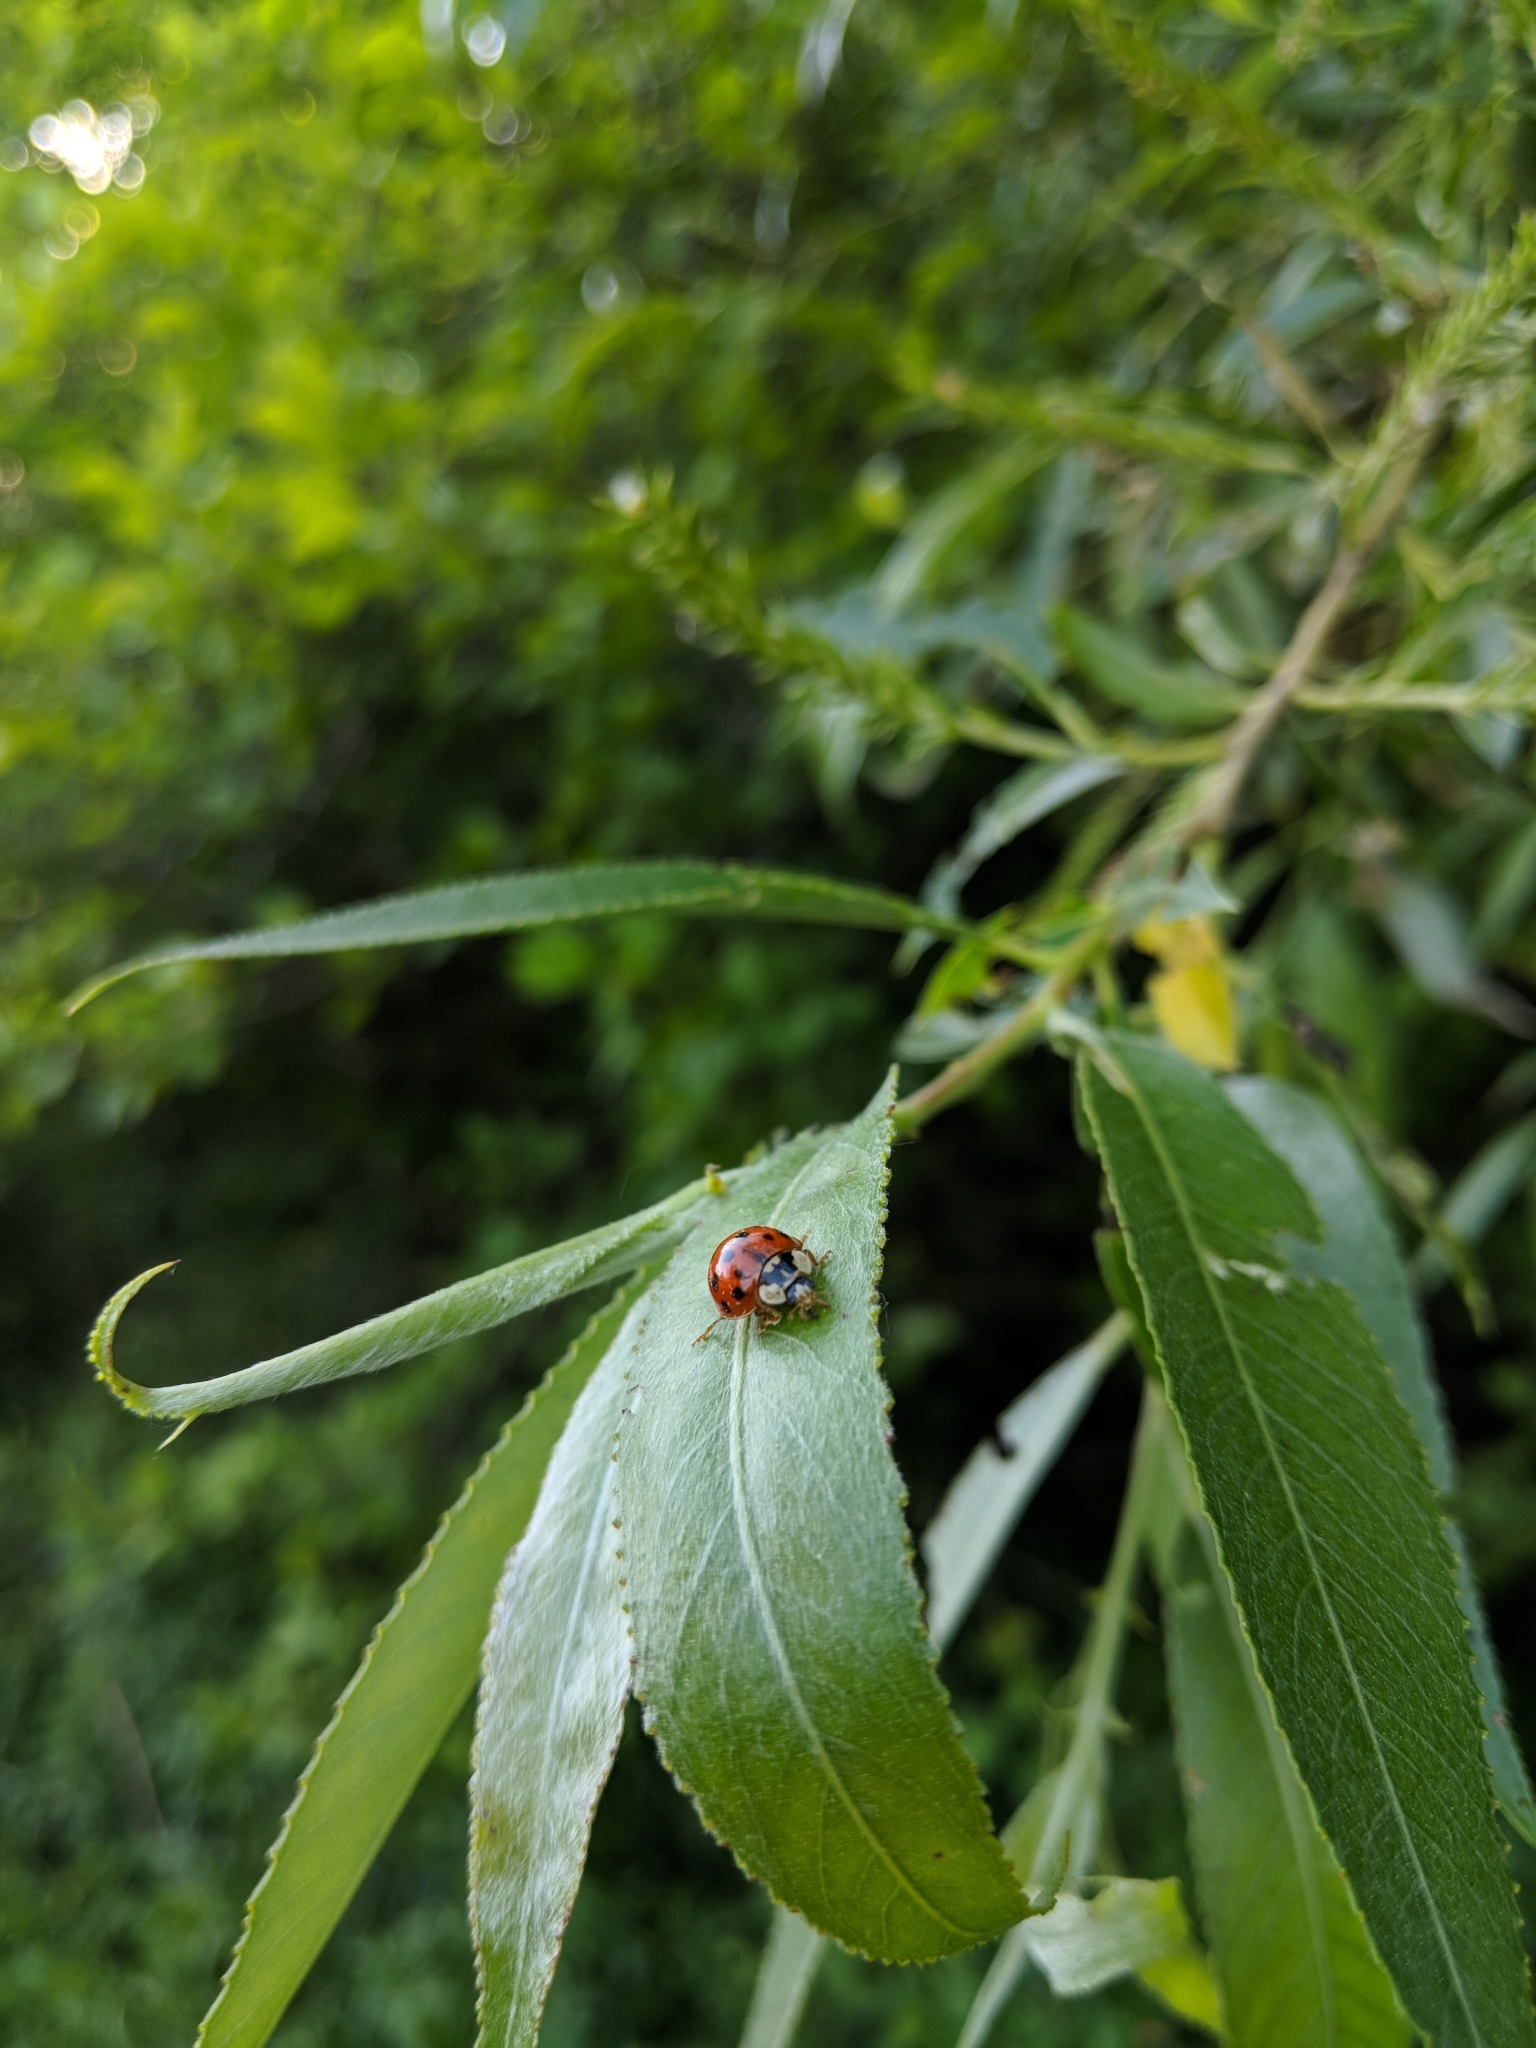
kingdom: Animalia
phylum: Arthropoda
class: Insecta
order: Coleoptera
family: Coccinellidae
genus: Harmonia
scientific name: Harmonia axyridis
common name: Harlequin ladybird
